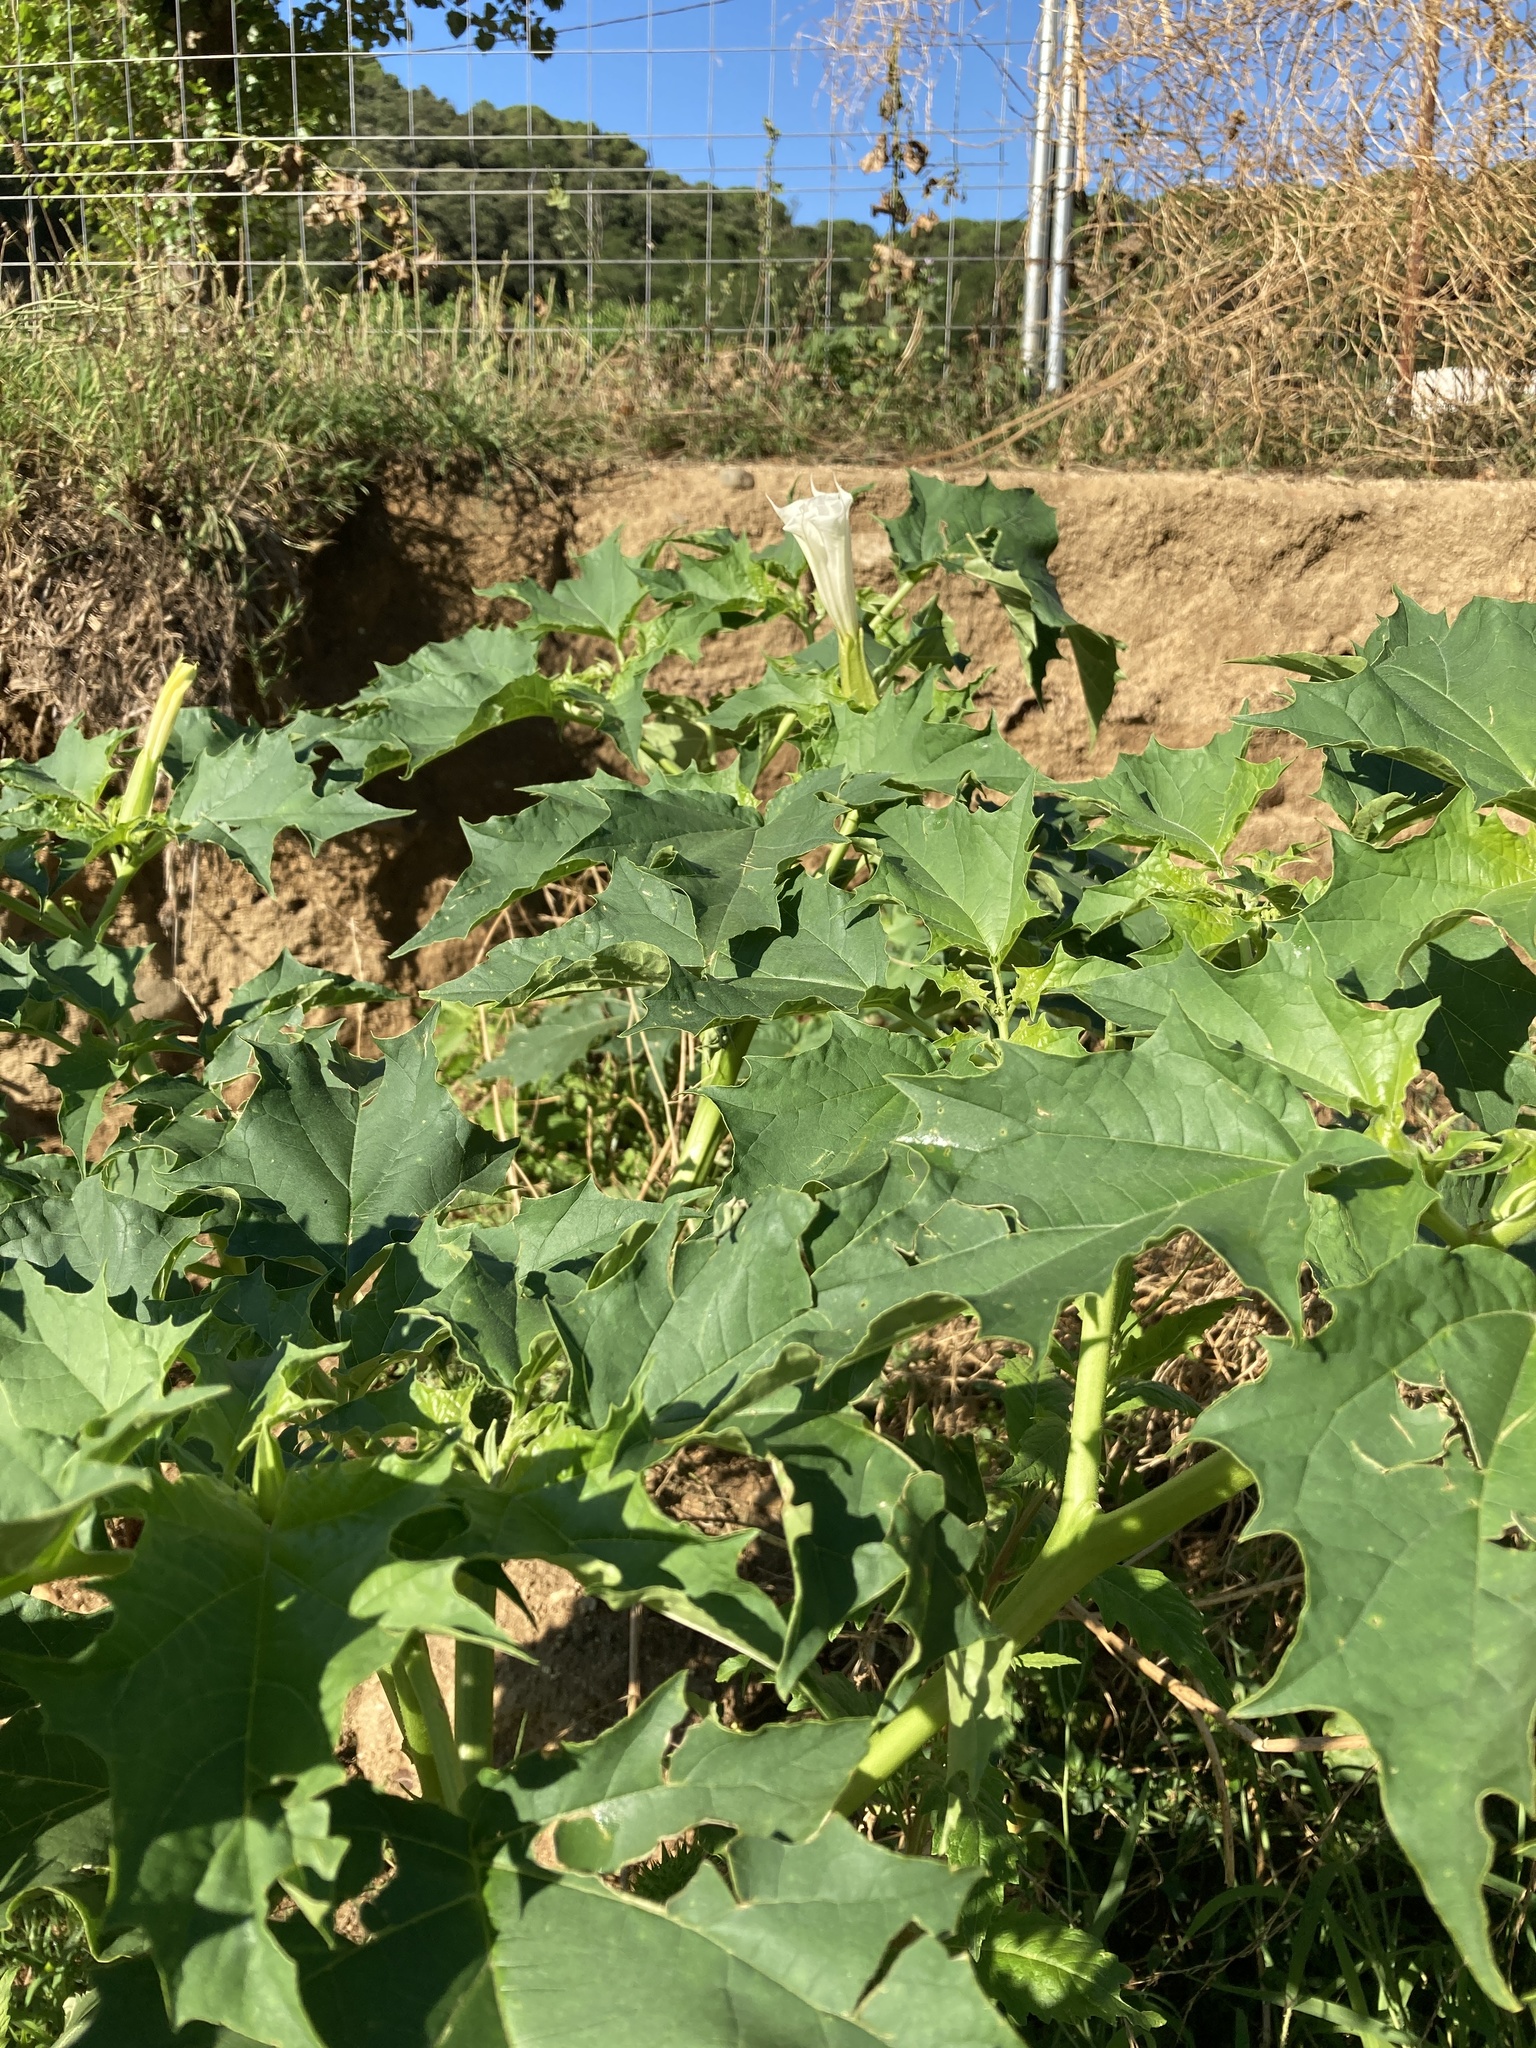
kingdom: Plantae
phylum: Tracheophyta
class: Magnoliopsida
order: Solanales
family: Solanaceae
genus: Datura
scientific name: Datura stramonium
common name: Thorn-apple
